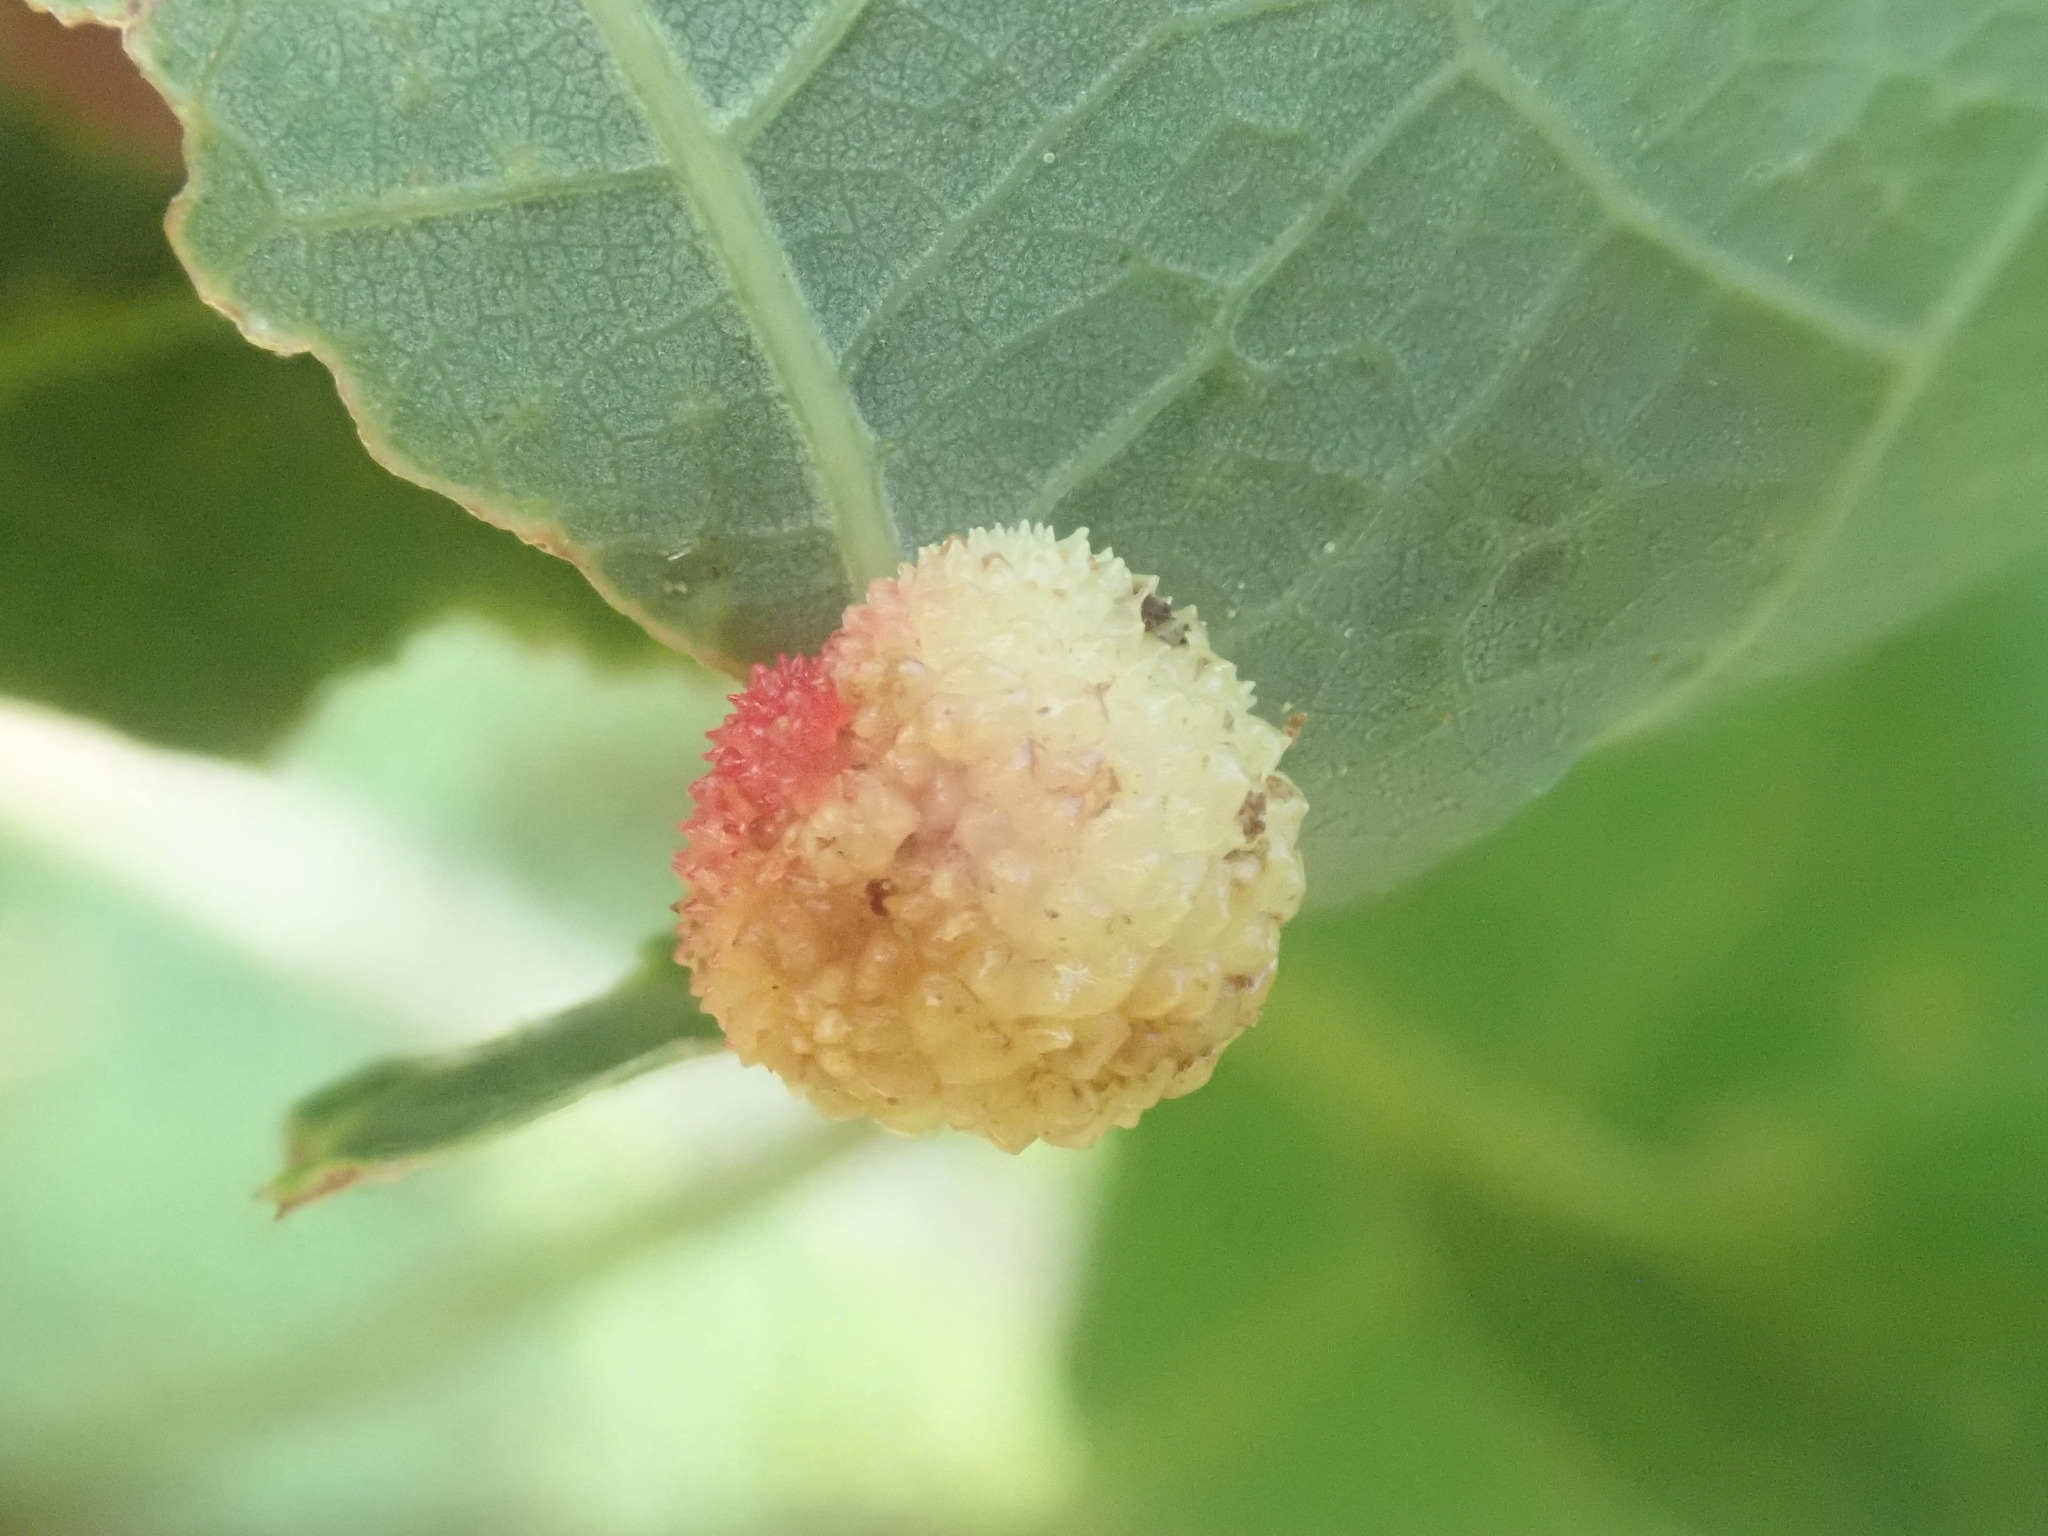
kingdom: Animalia
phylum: Arthropoda
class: Insecta
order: Hymenoptera
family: Cynipidae
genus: Acraspis
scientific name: Acraspis
